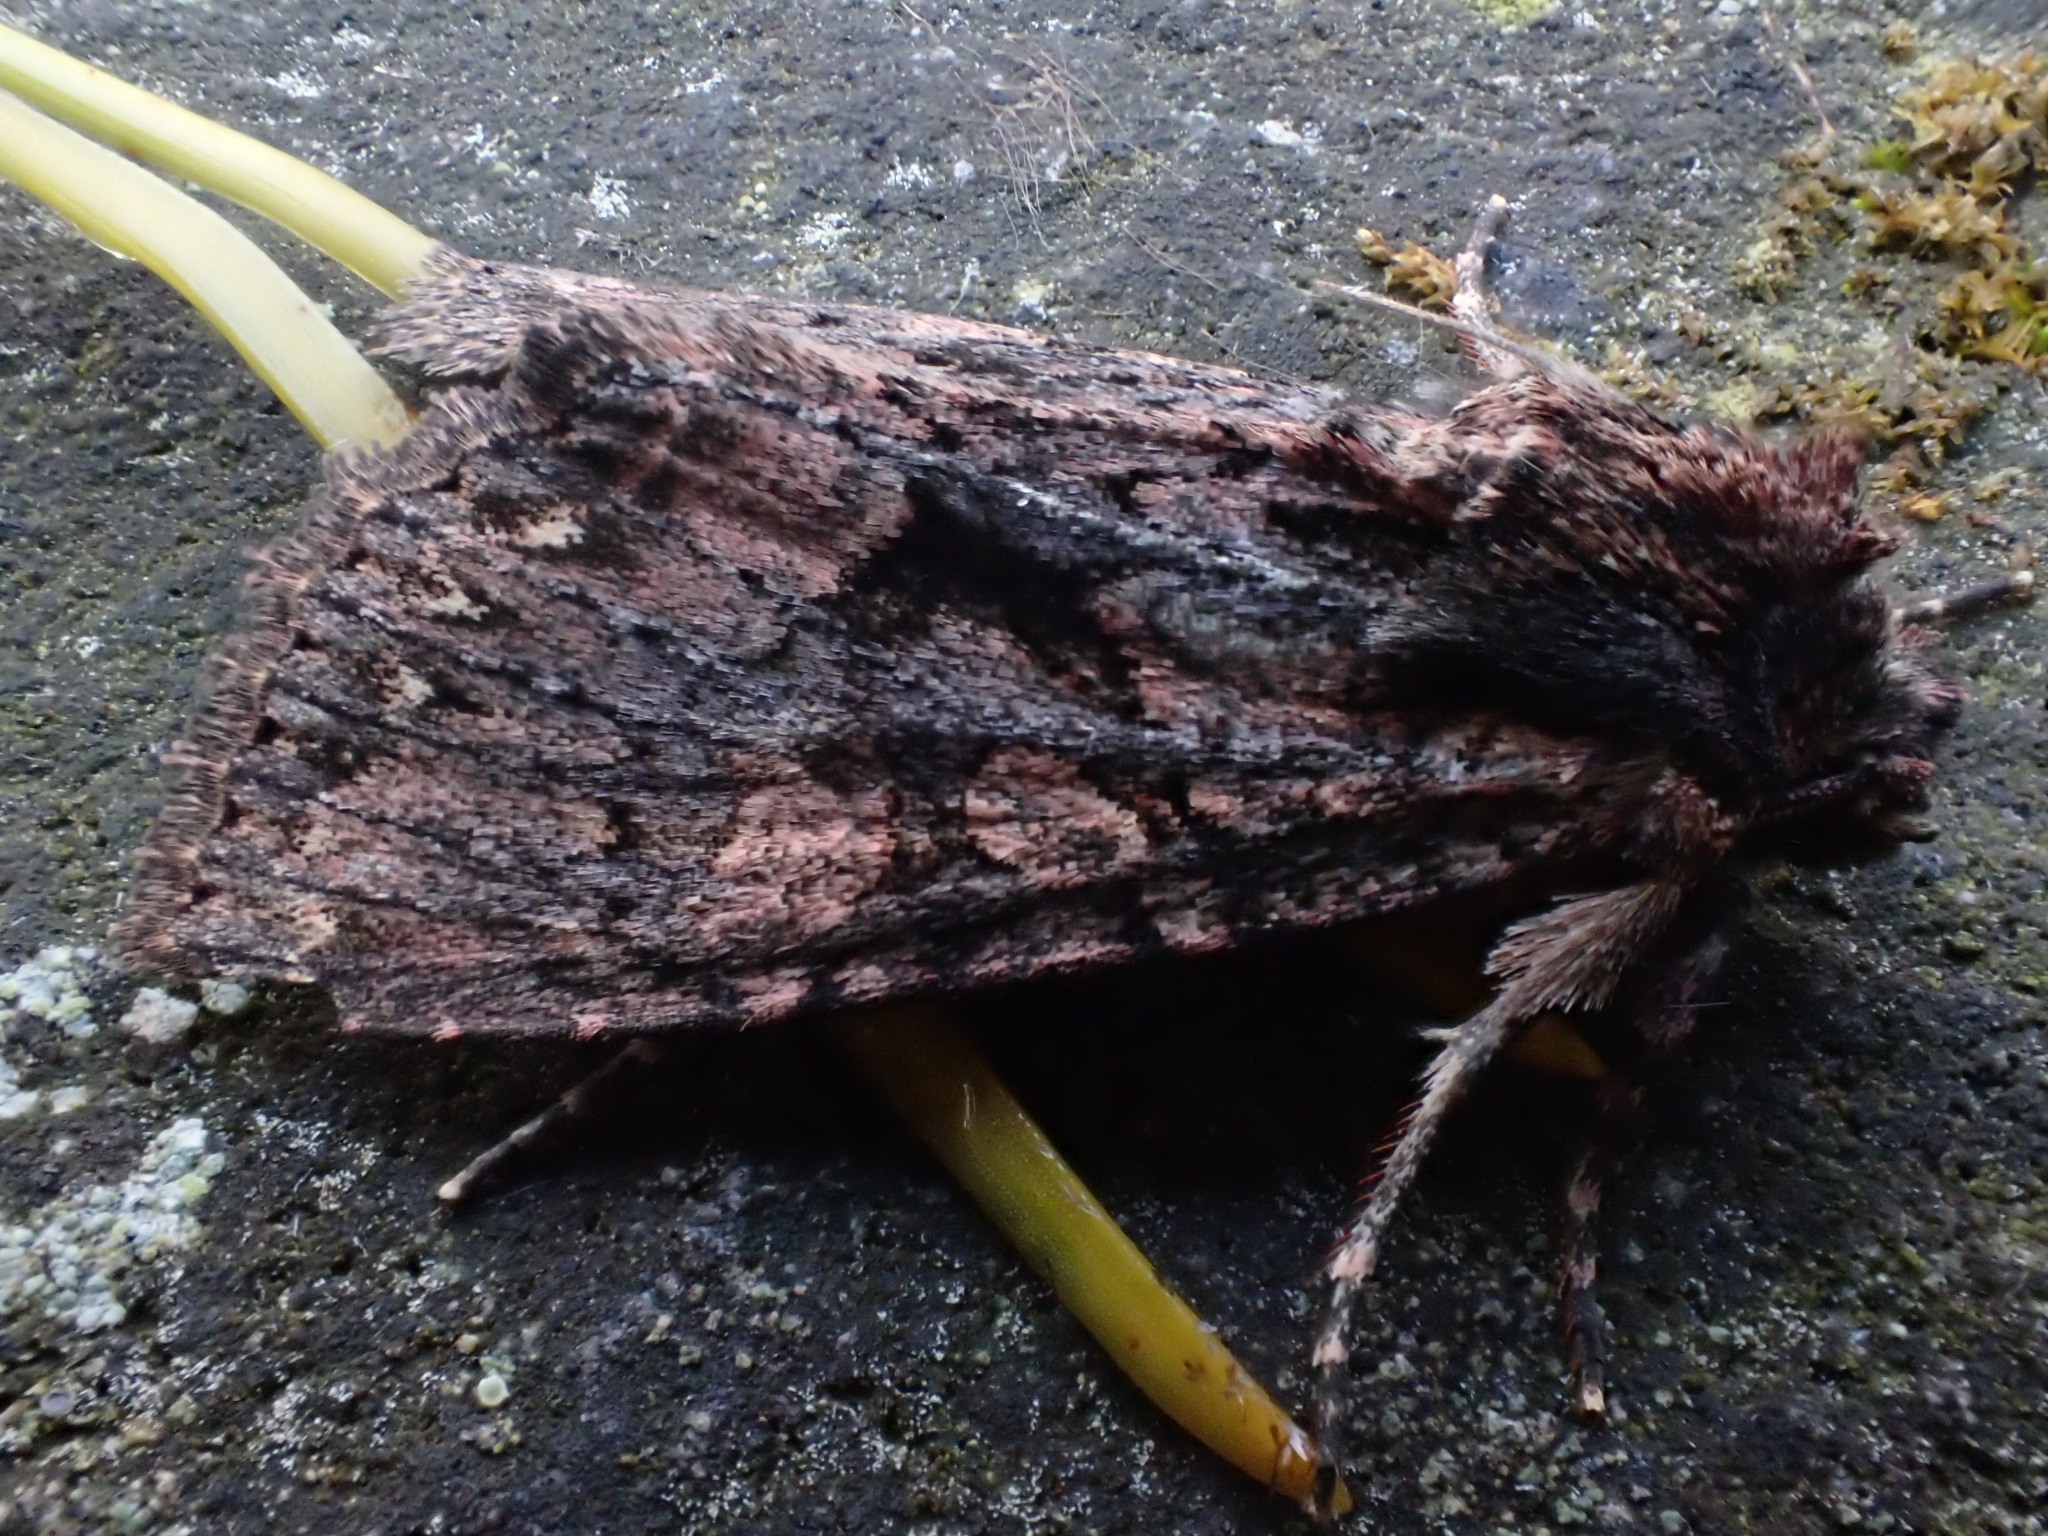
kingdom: Animalia
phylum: Arthropoda
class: Insecta
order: Lepidoptera
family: Noctuidae
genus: Mniotype
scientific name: Mniotype satura
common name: Beautiful arches
